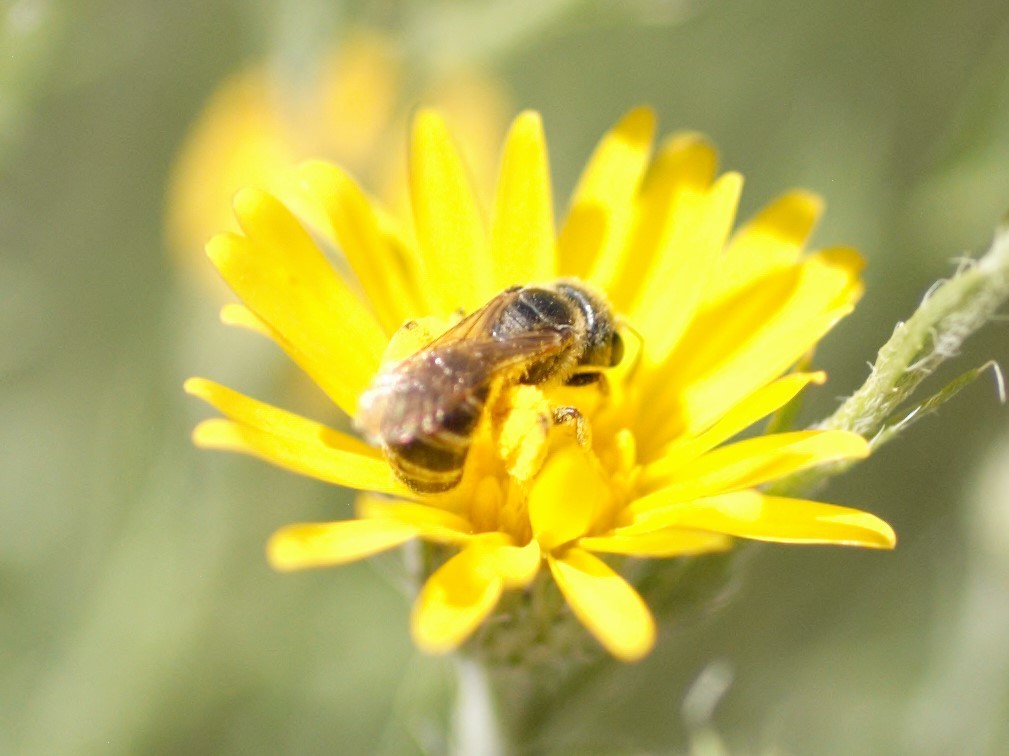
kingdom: Animalia
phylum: Arthropoda
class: Insecta
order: Hymenoptera
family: Halictidae
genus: Halictus
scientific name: Halictus ligatus
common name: Ligated furrow bee
